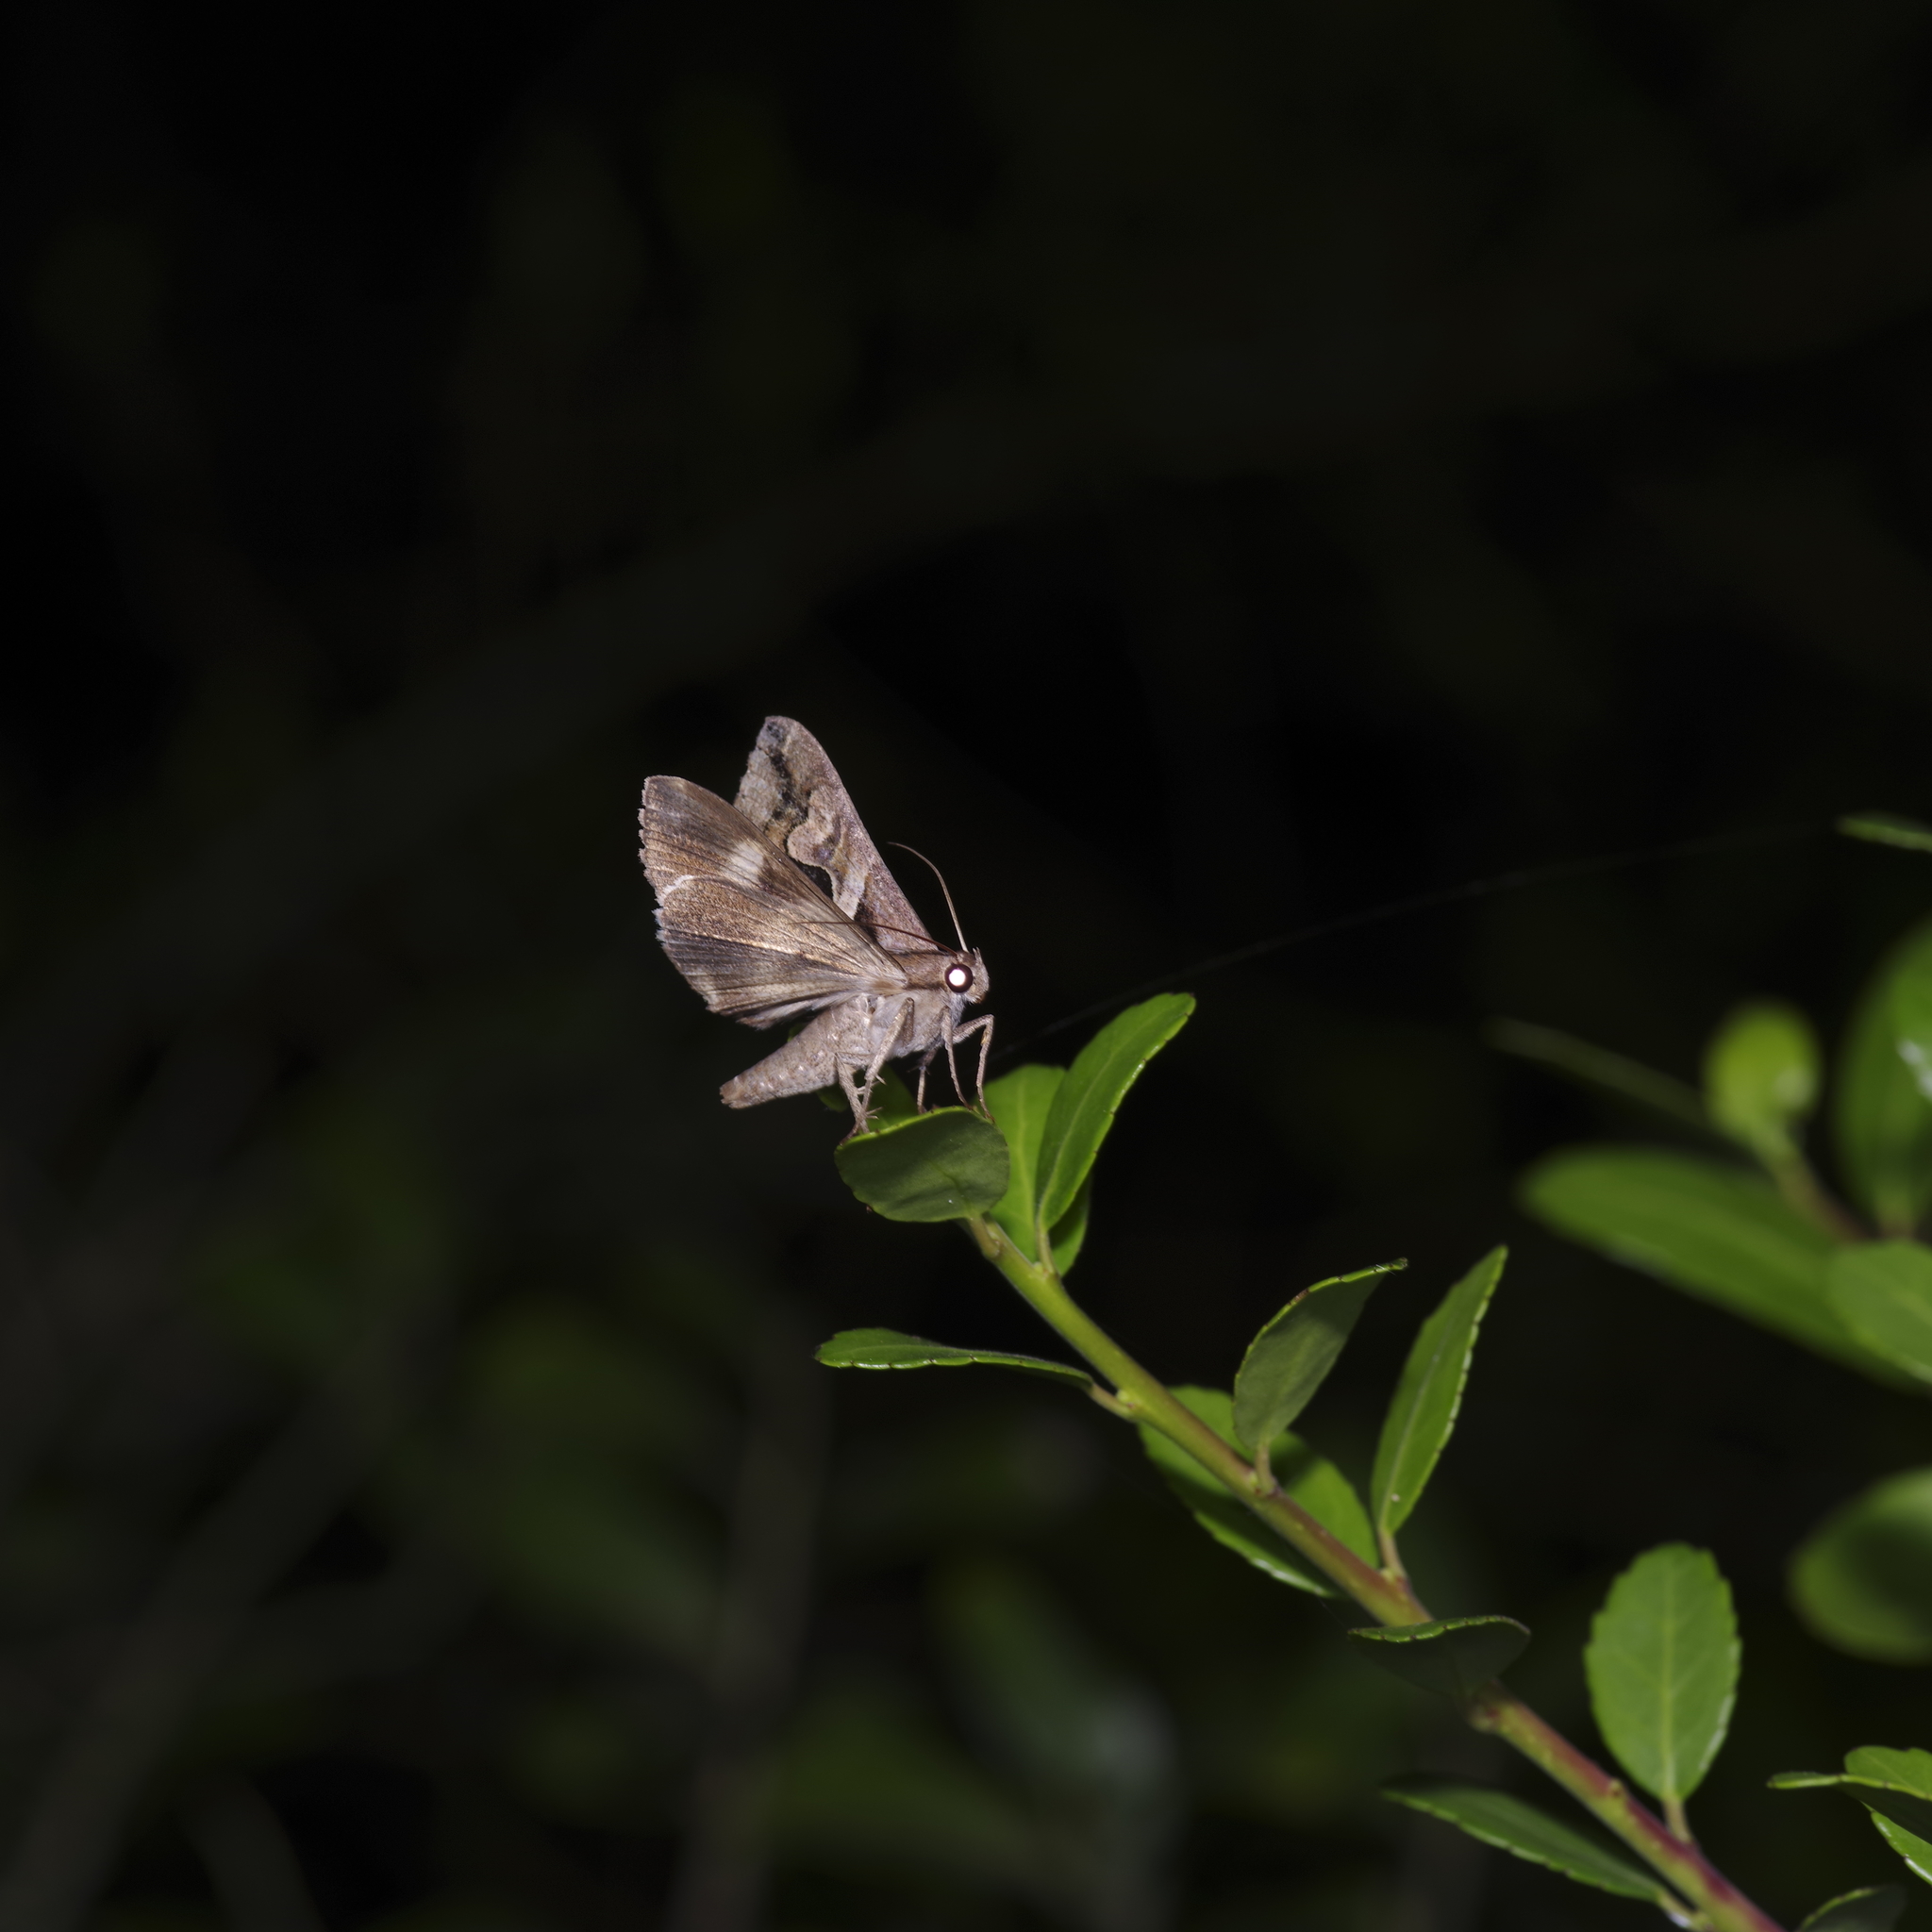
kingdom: Animalia
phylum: Arthropoda
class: Insecta
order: Lepidoptera
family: Erebidae
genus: Melipotis
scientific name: Melipotis cellaris
